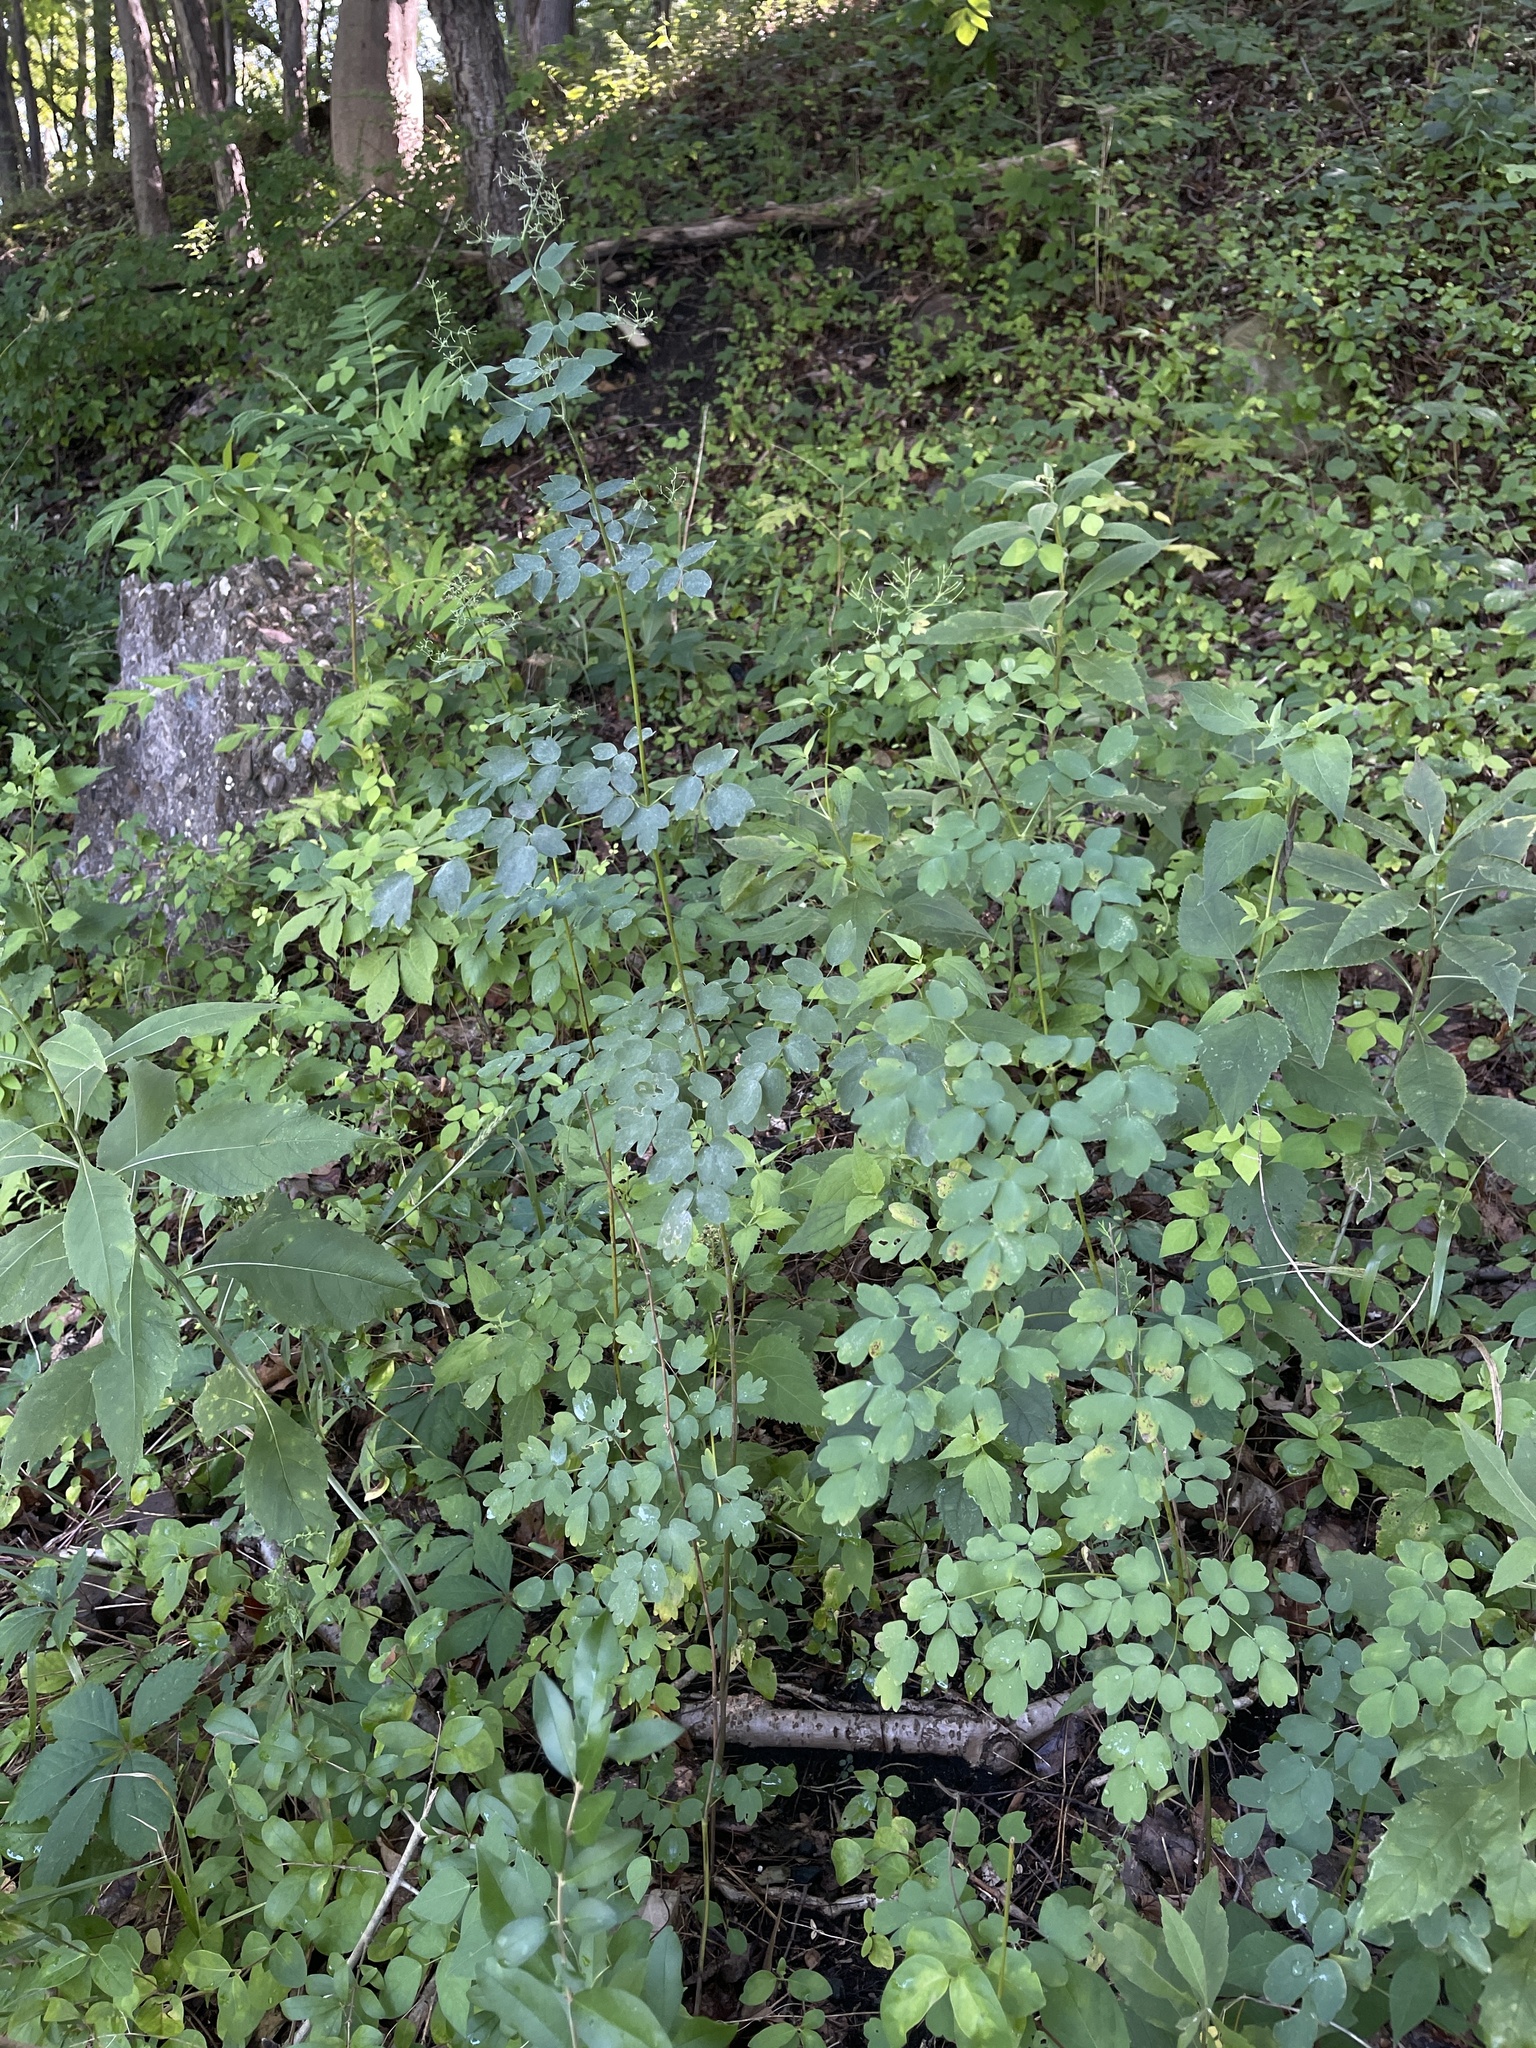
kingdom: Plantae
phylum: Tracheophyta
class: Magnoliopsida
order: Ranunculales
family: Ranunculaceae
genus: Thalictrum
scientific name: Thalictrum pubescens
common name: King-of-the-meadow
